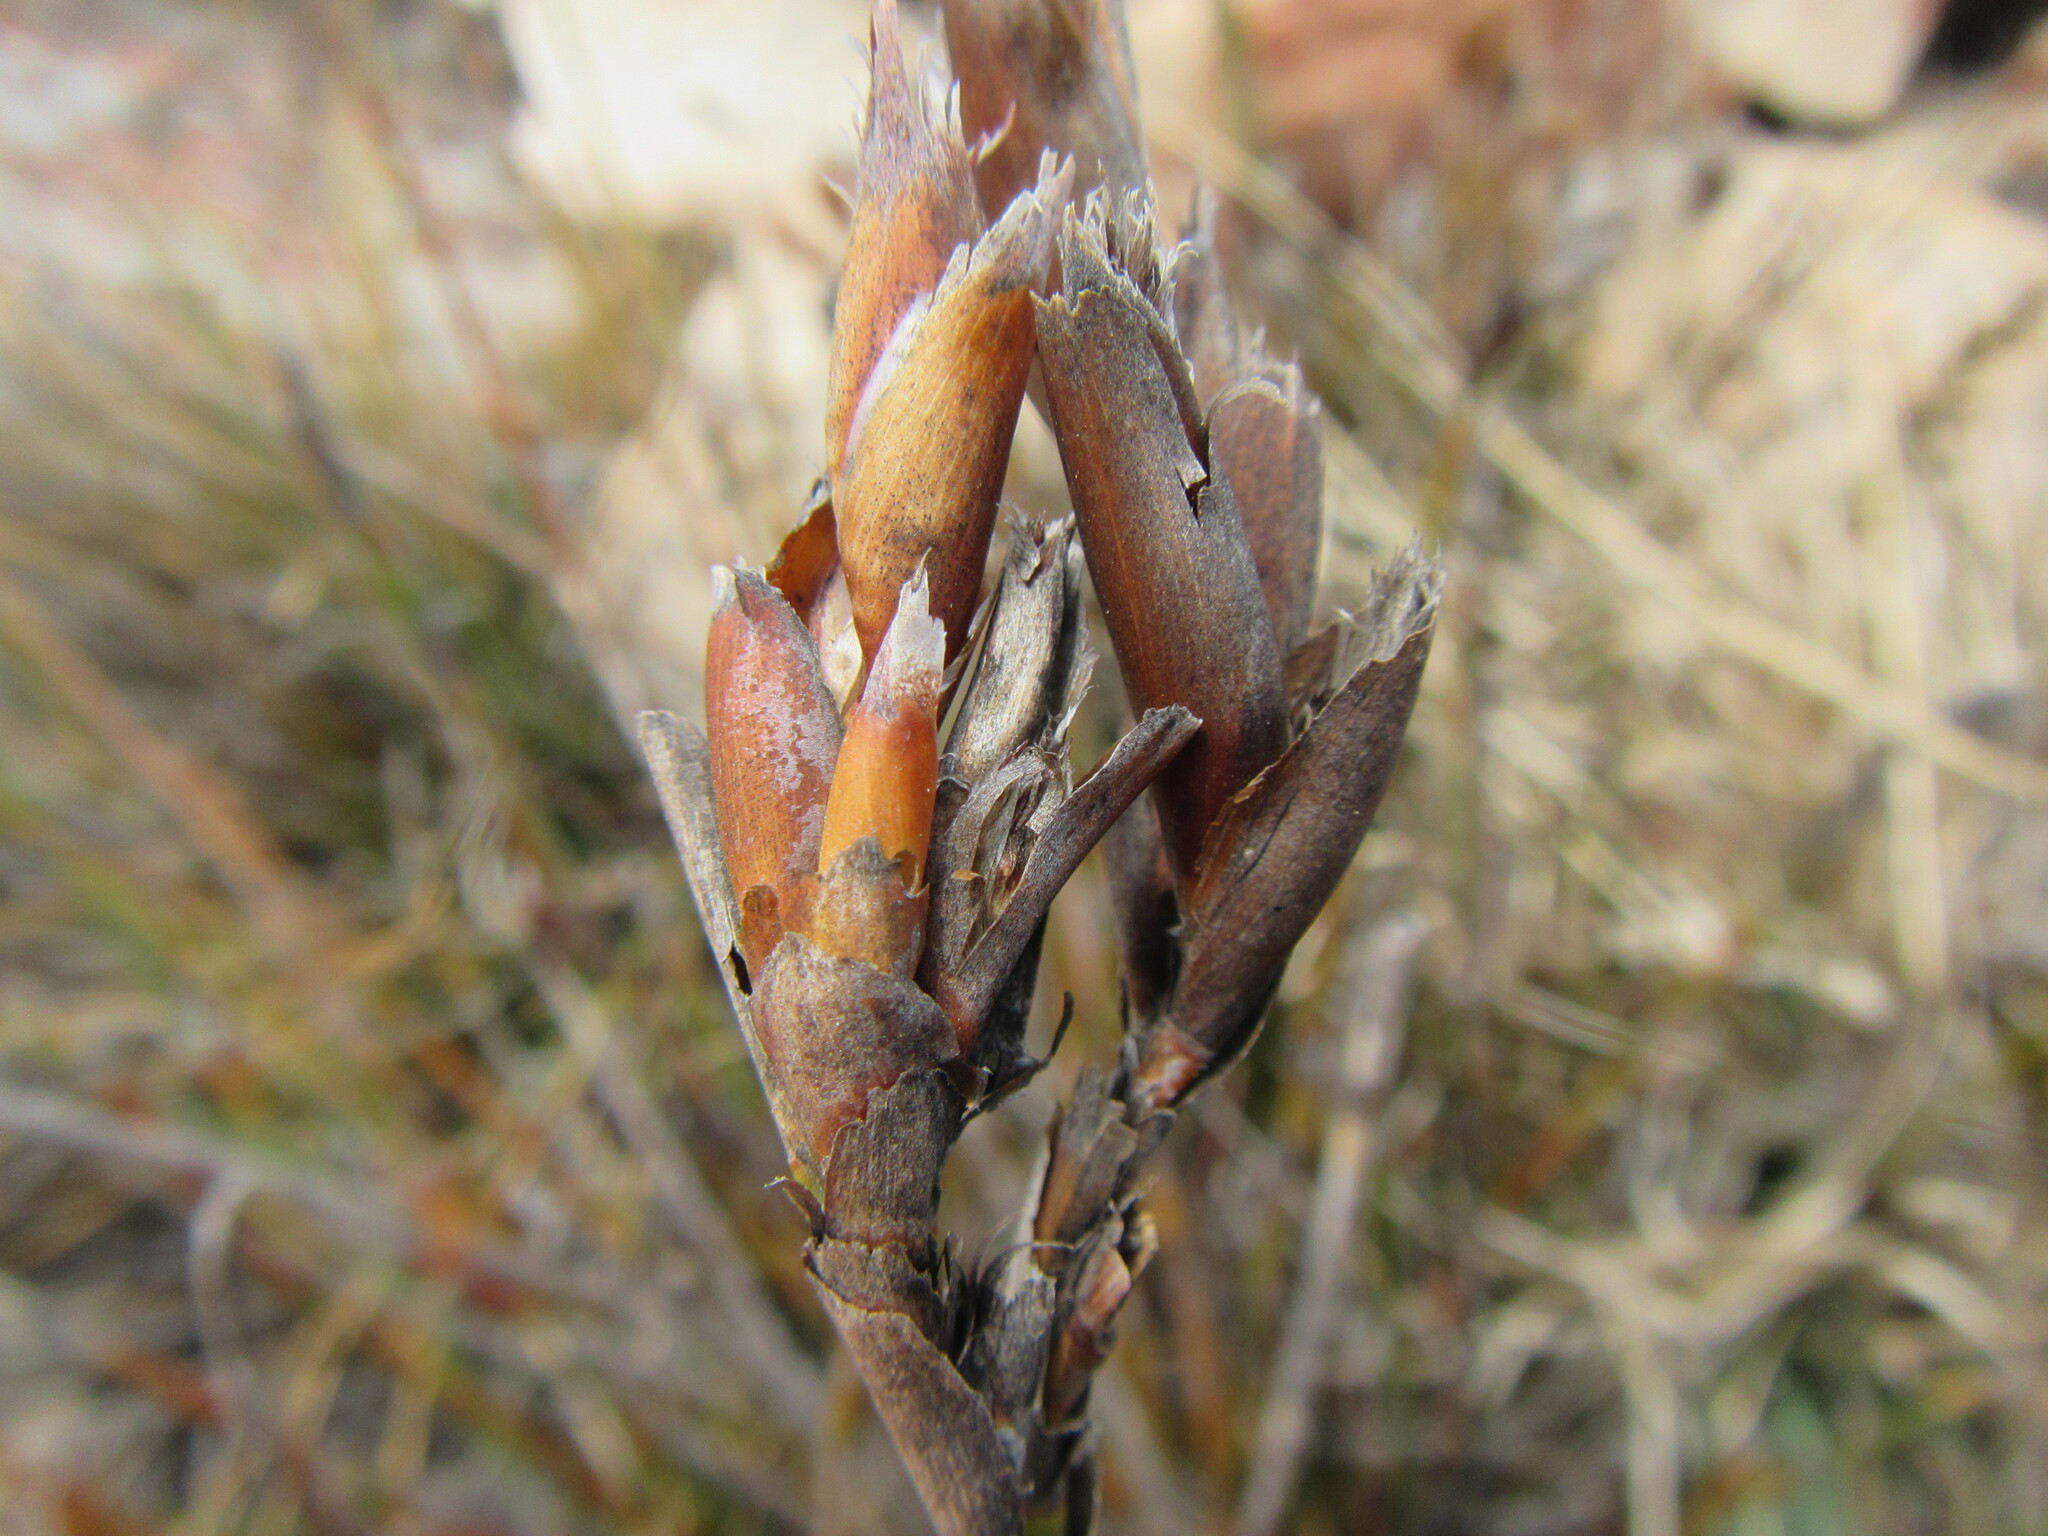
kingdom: Plantae
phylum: Tracheophyta
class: Liliopsida
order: Poales
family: Restionaceae
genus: Willdenowia
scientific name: Willdenowia stokoei
